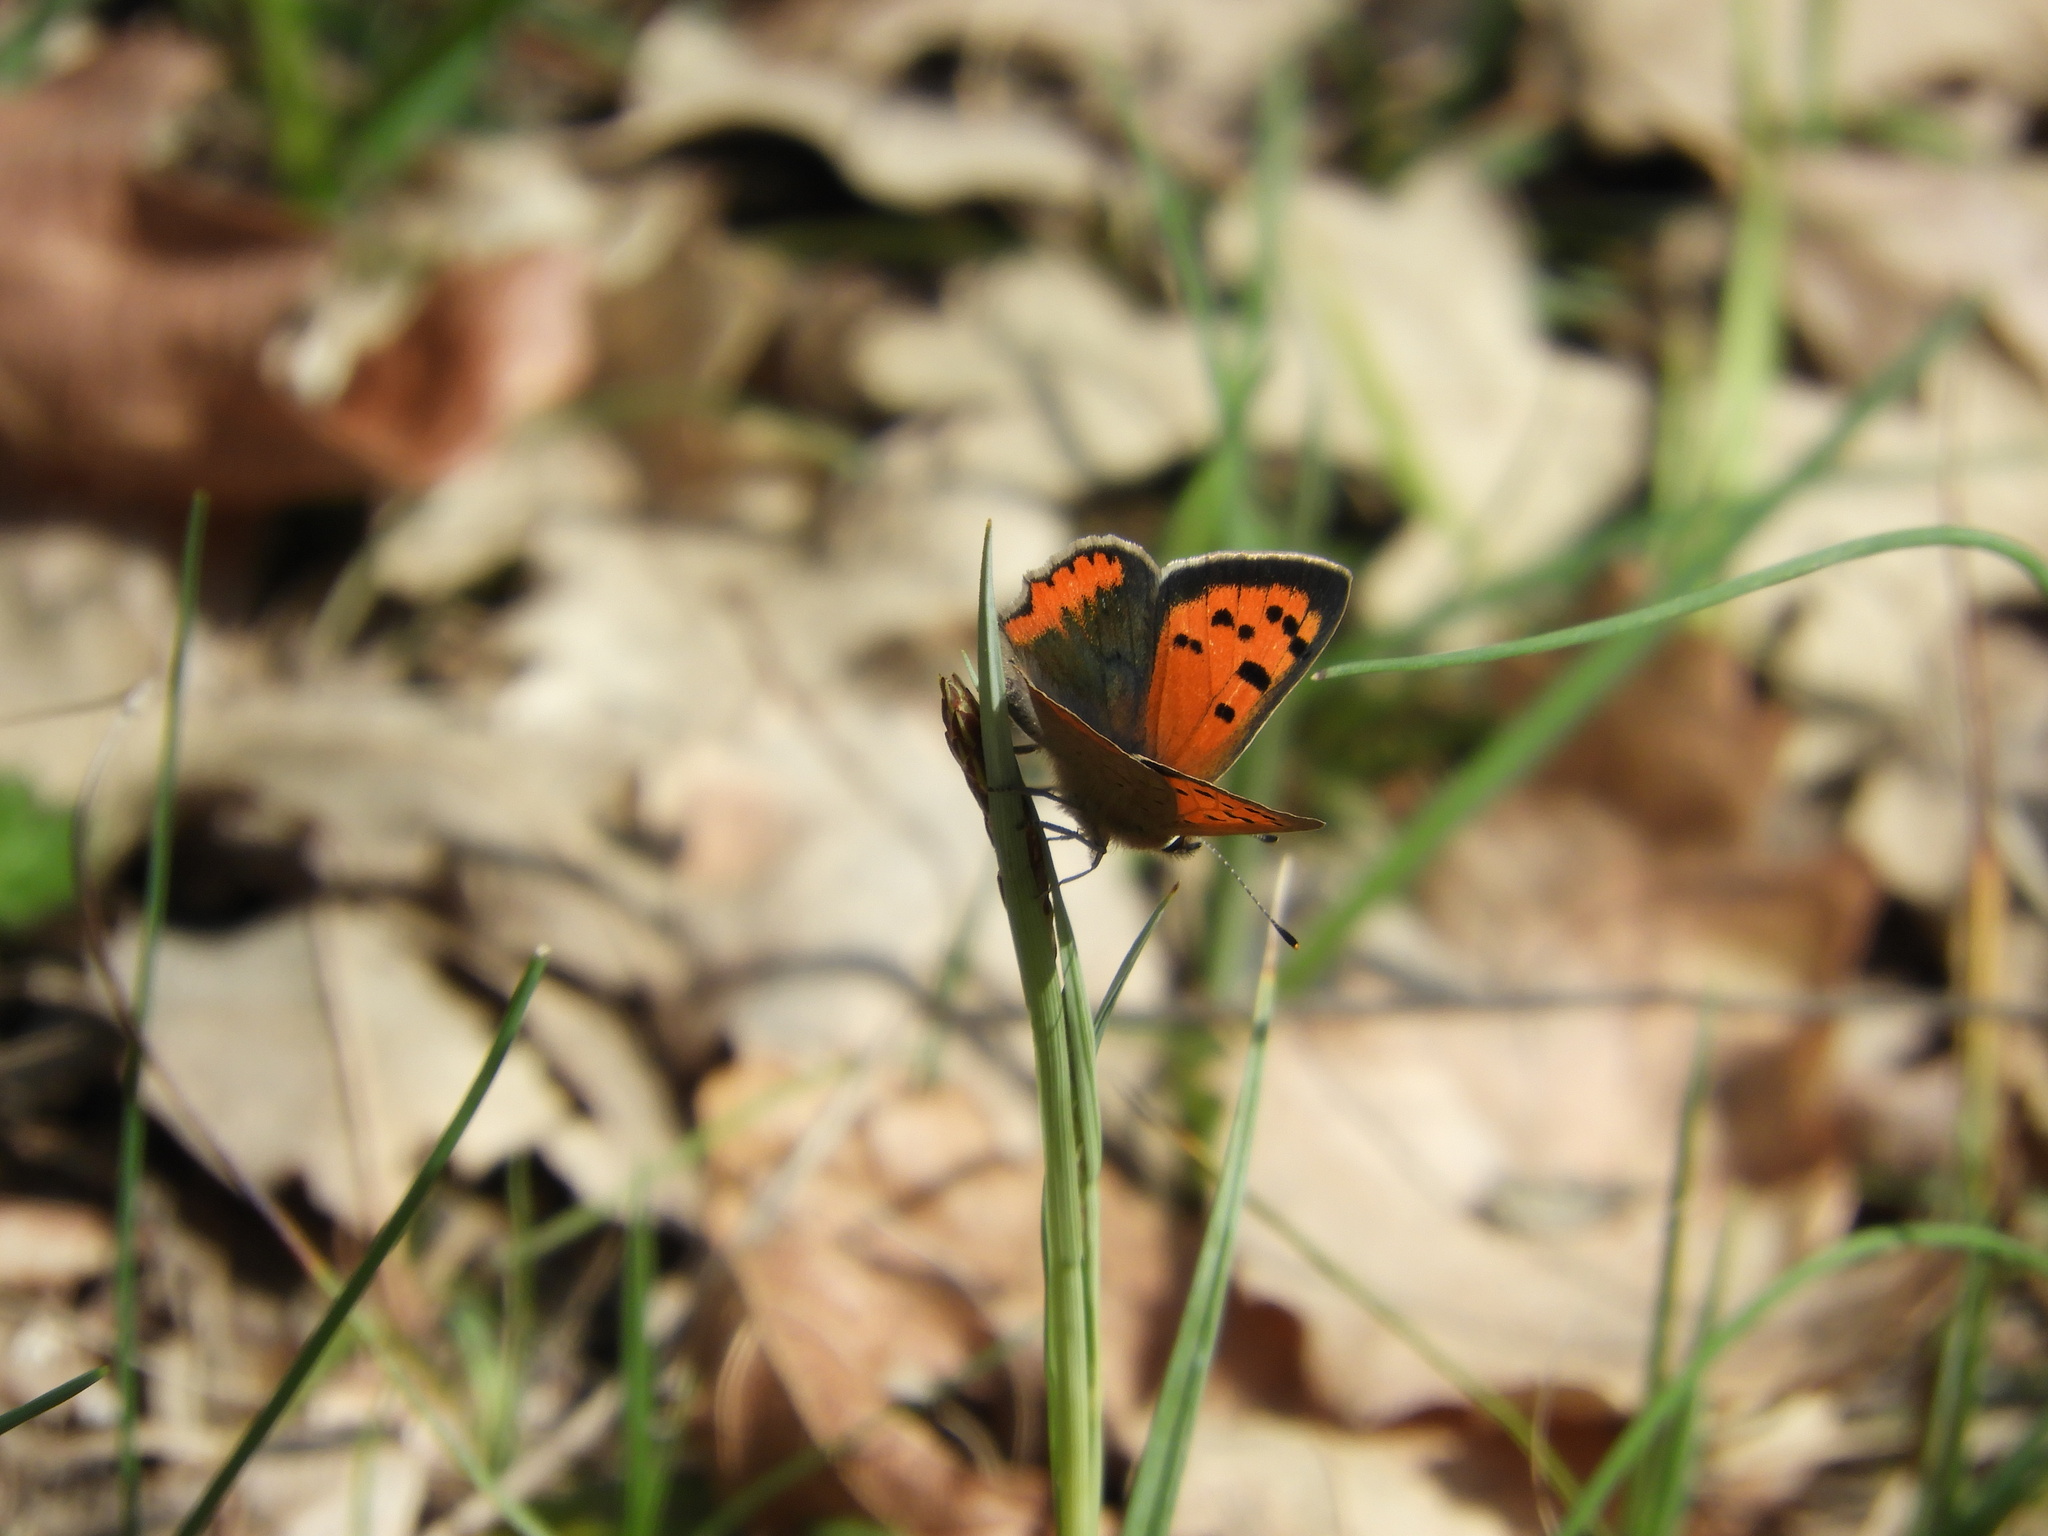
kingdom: Animalia
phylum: Arthropoda
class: Insecta
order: Lepidoptera
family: Lycaenidae
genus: Lycaena
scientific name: Lycaena phlaeas
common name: Small copper
